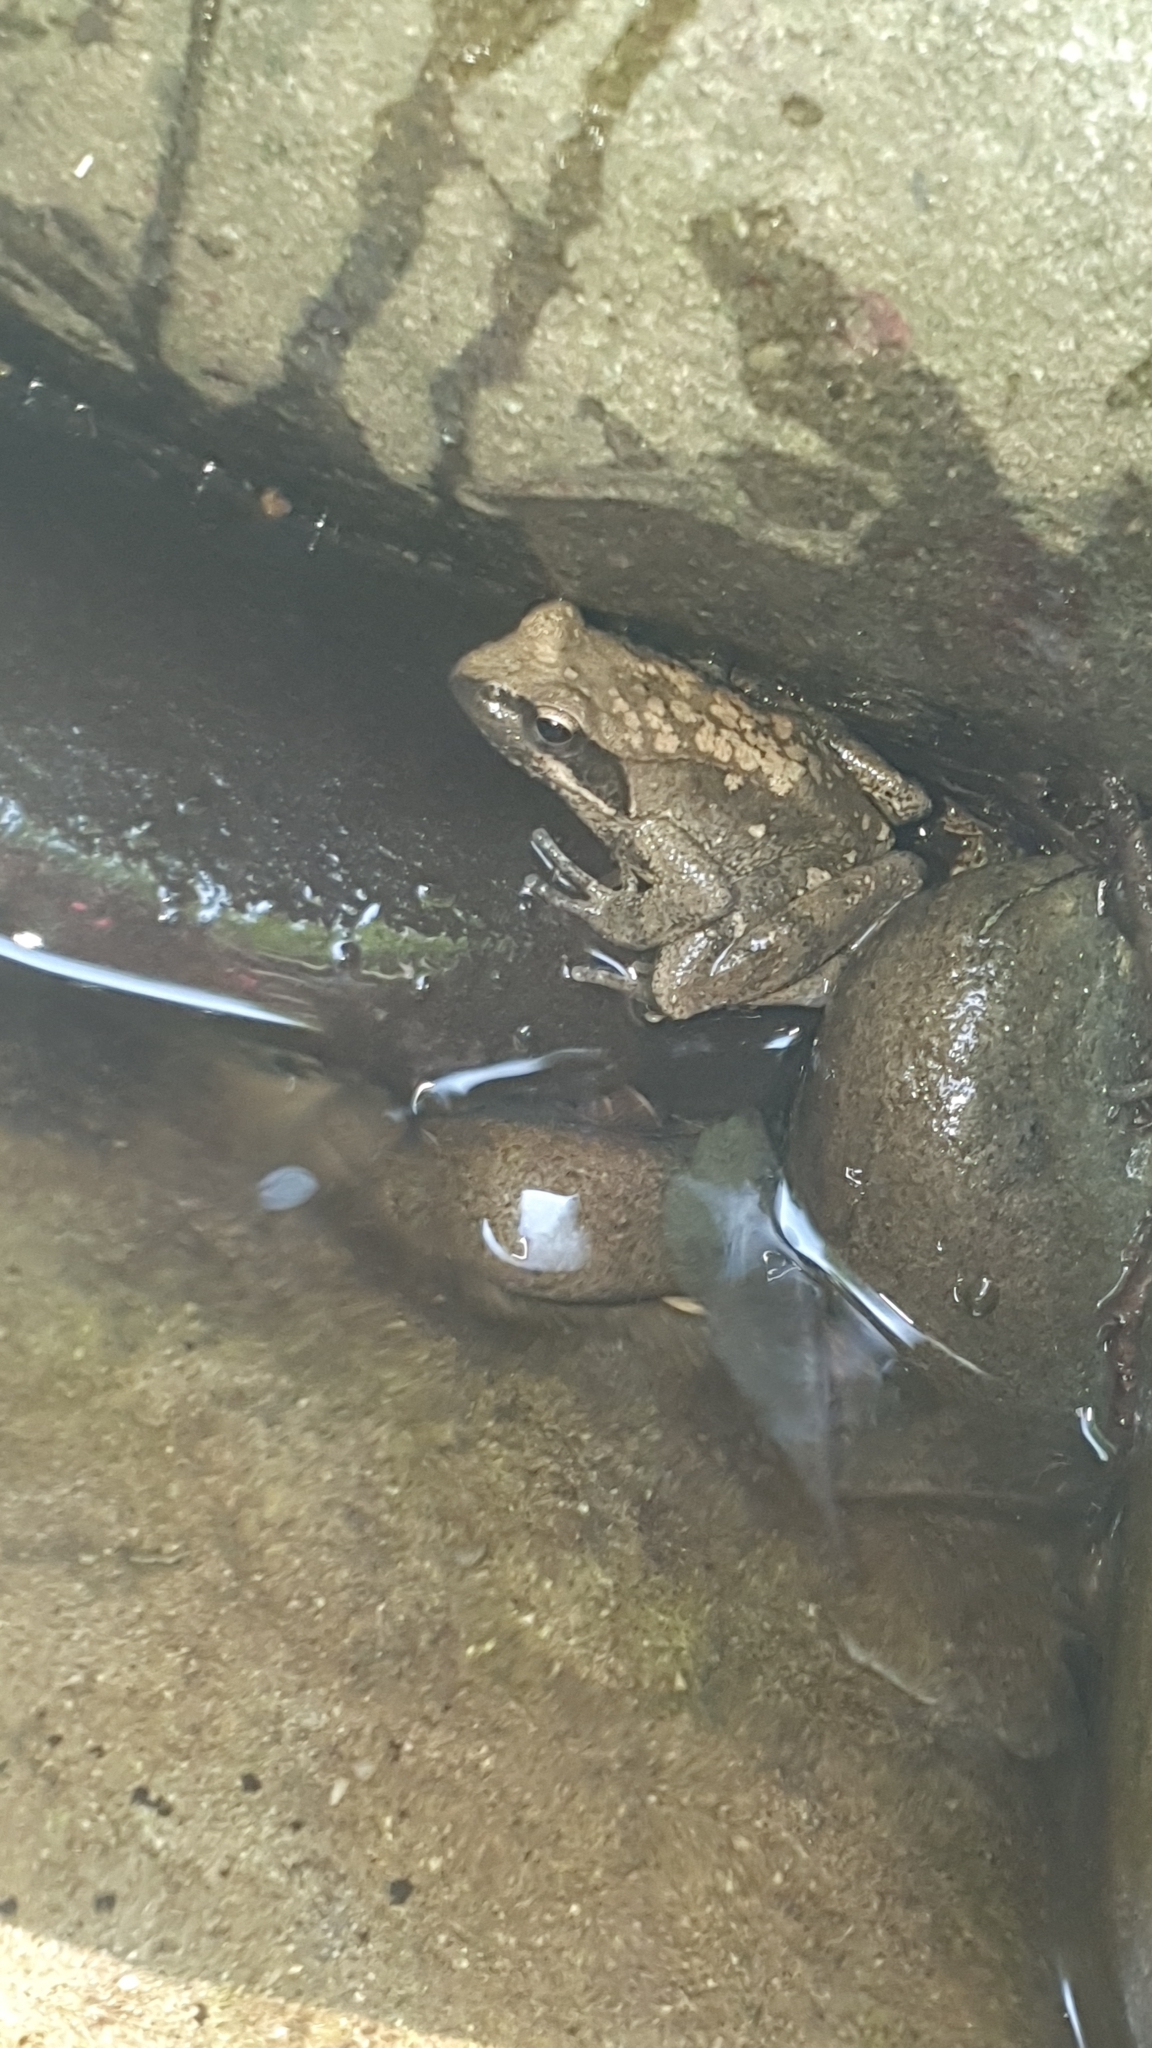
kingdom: Animalia
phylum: Chordata
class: Amphibia
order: Anura
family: Ranidae
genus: Rana
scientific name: Rana italica
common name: Italian stream frog
